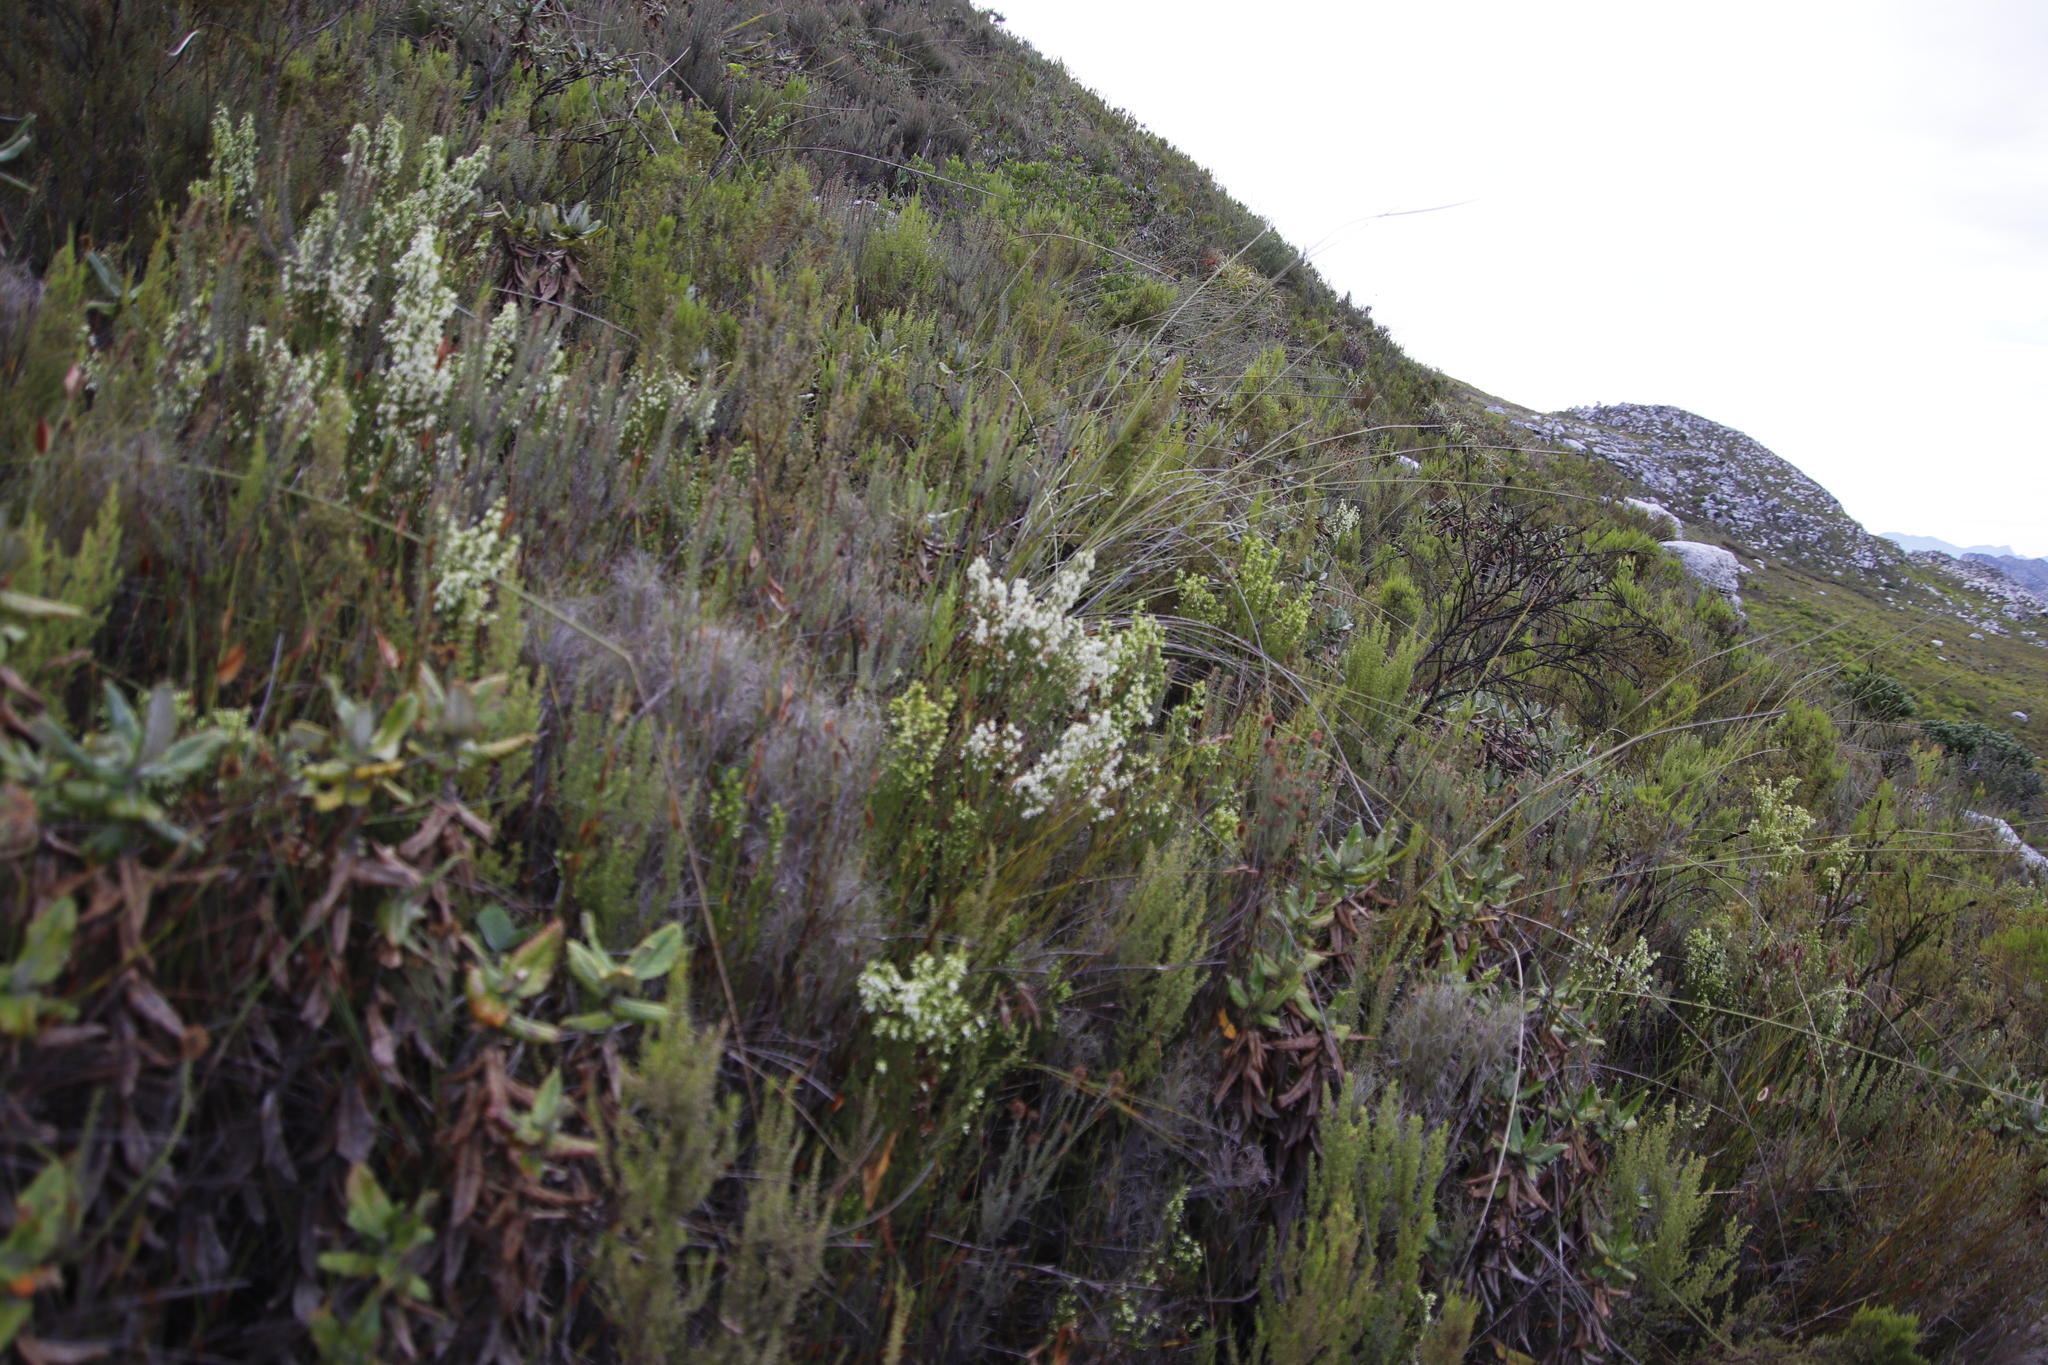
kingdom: Plantae
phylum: Tracheophyta
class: Magnoliopsida
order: Ericales
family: Ericaceae
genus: Erica
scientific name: Erica lutea
